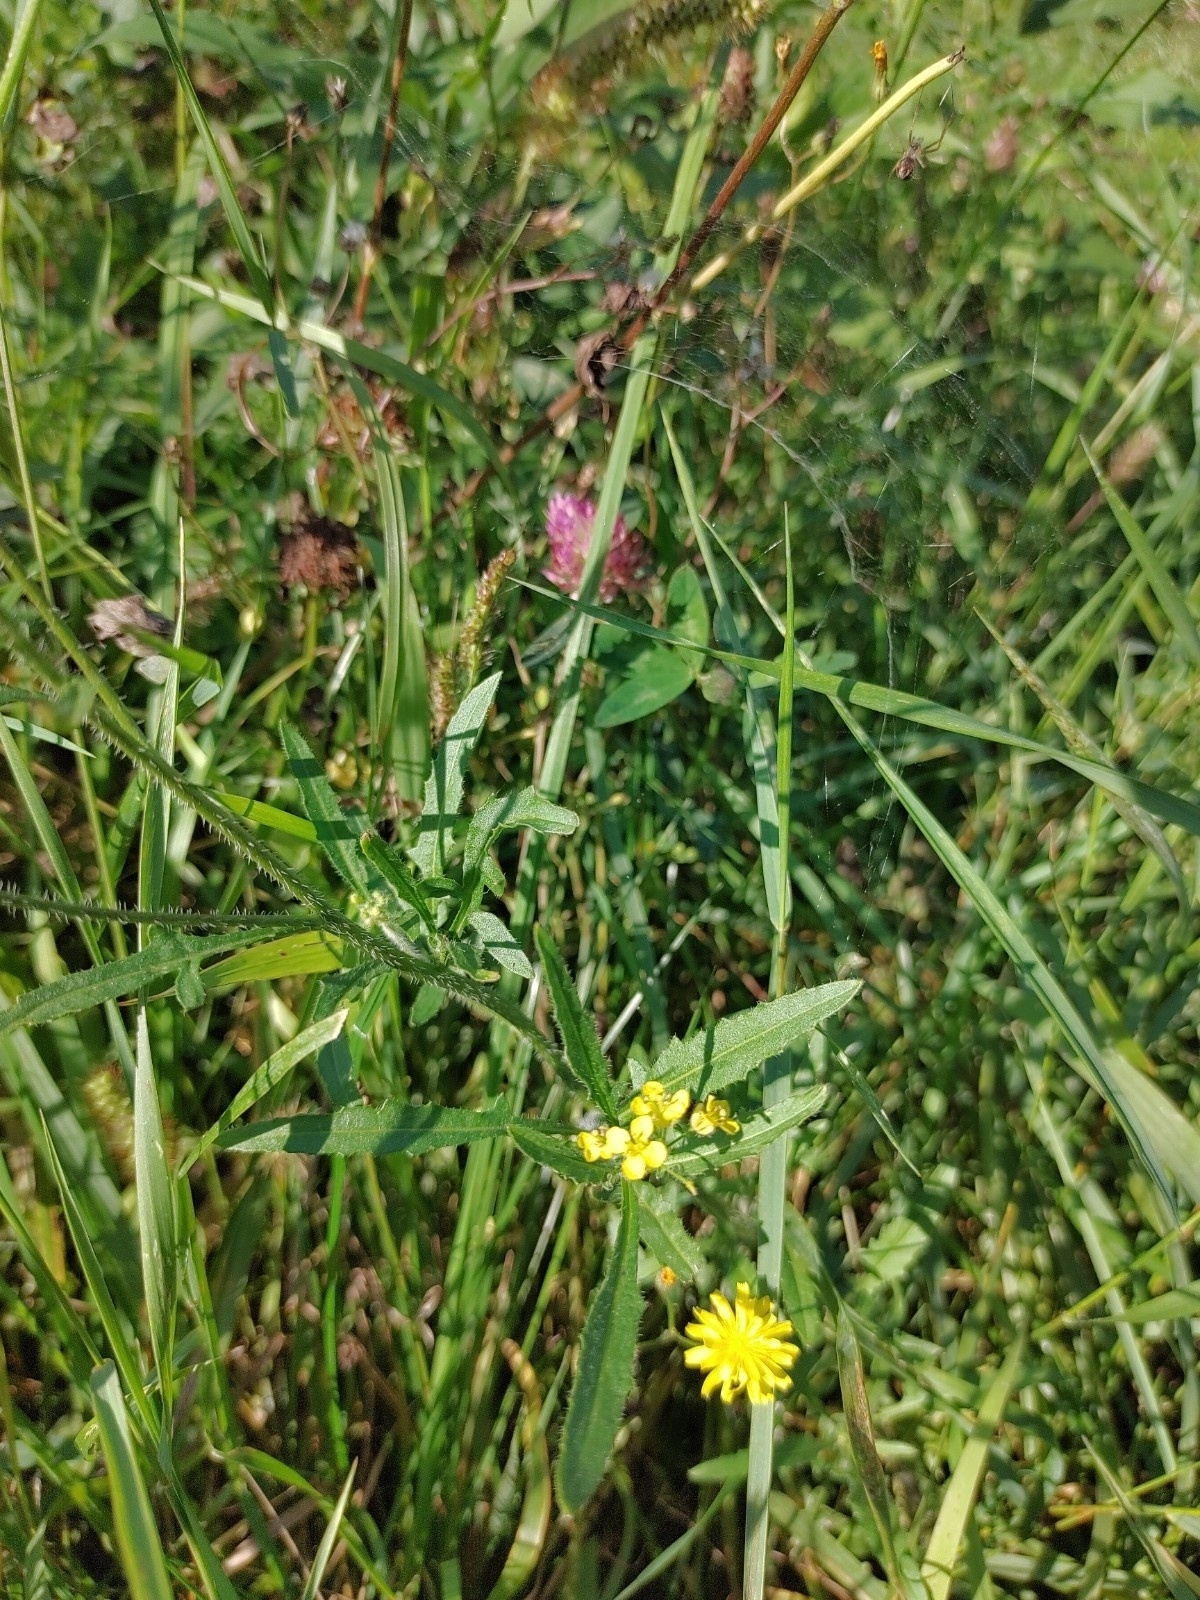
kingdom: Plantae
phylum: Tracheophyta
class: Magnoliopsida
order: Brassicales
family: Brassicaceae
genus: Sisymbrium
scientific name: Sisymbrium loeselii
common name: False london-rocket
